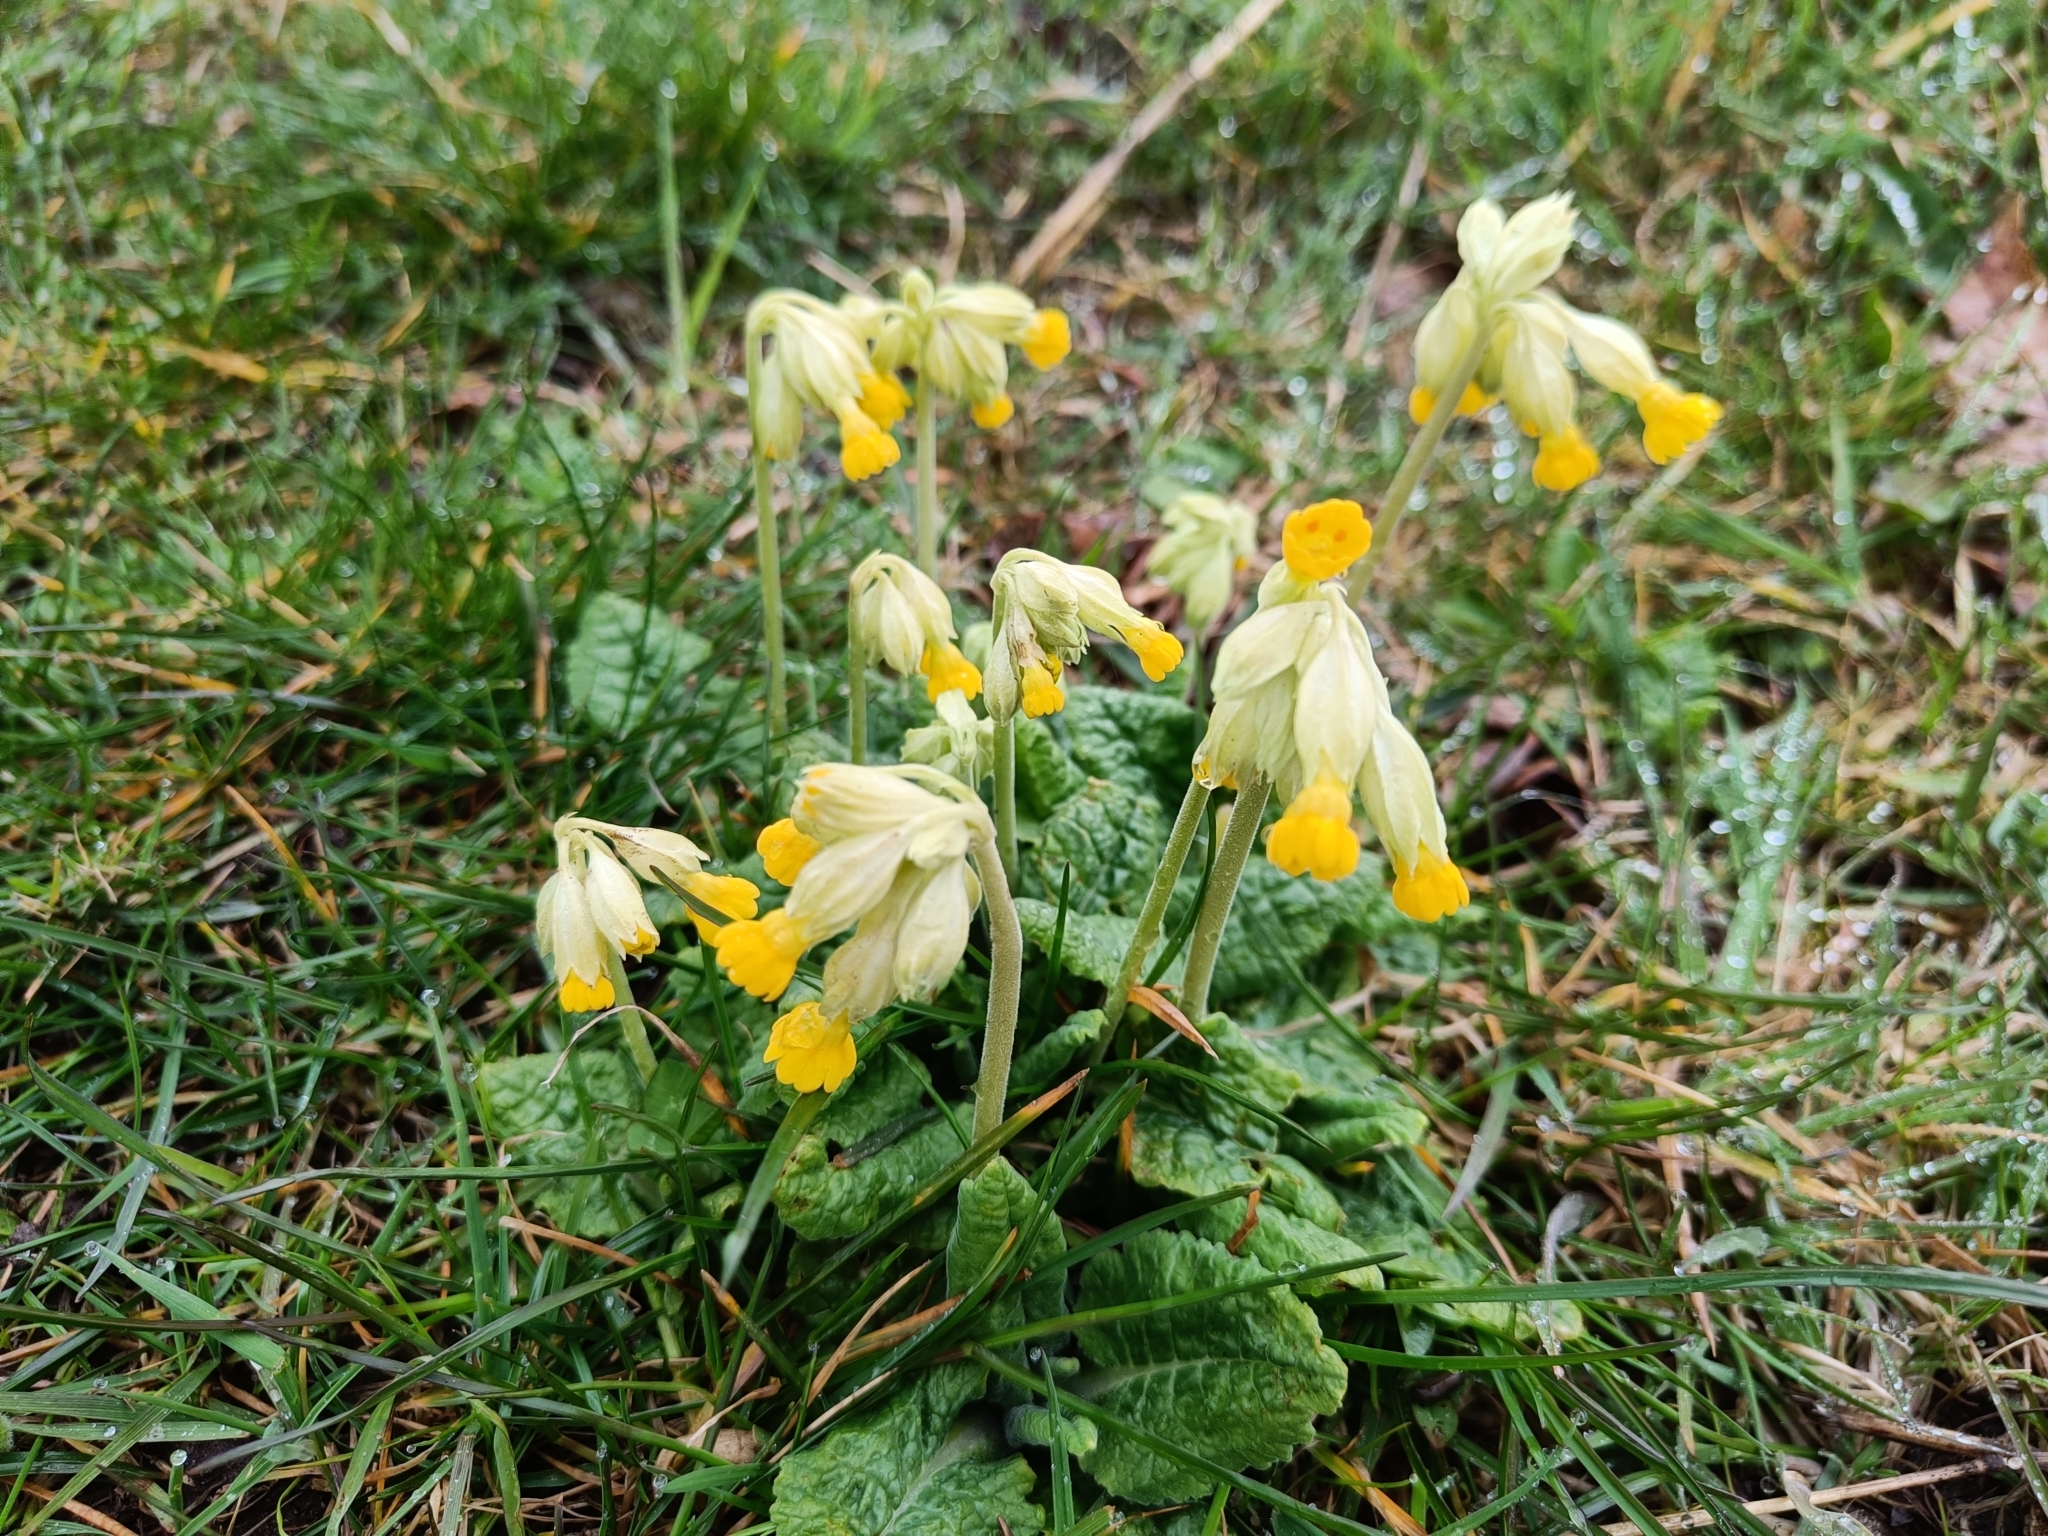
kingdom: Plantae
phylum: Tracheophyta
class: Magnoliopsida
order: Ericales
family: Primulaceae
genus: Primula
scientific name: Primula veris
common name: Cowslip
